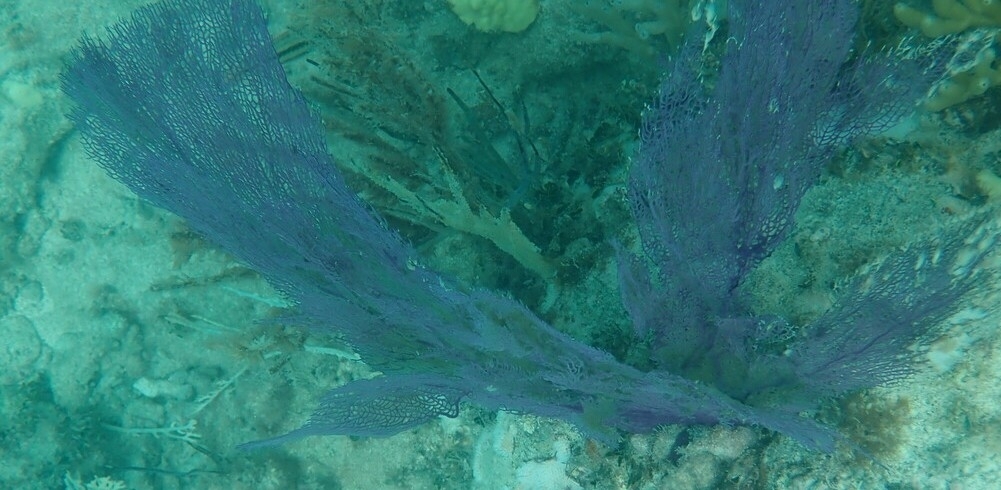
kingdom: Animalia
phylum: Cnidaria
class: Anthozoa
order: Malacalcyonacea
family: Gorgoniidae
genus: Gorgonia
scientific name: Gorgonia ventalina
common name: Common sea fan
